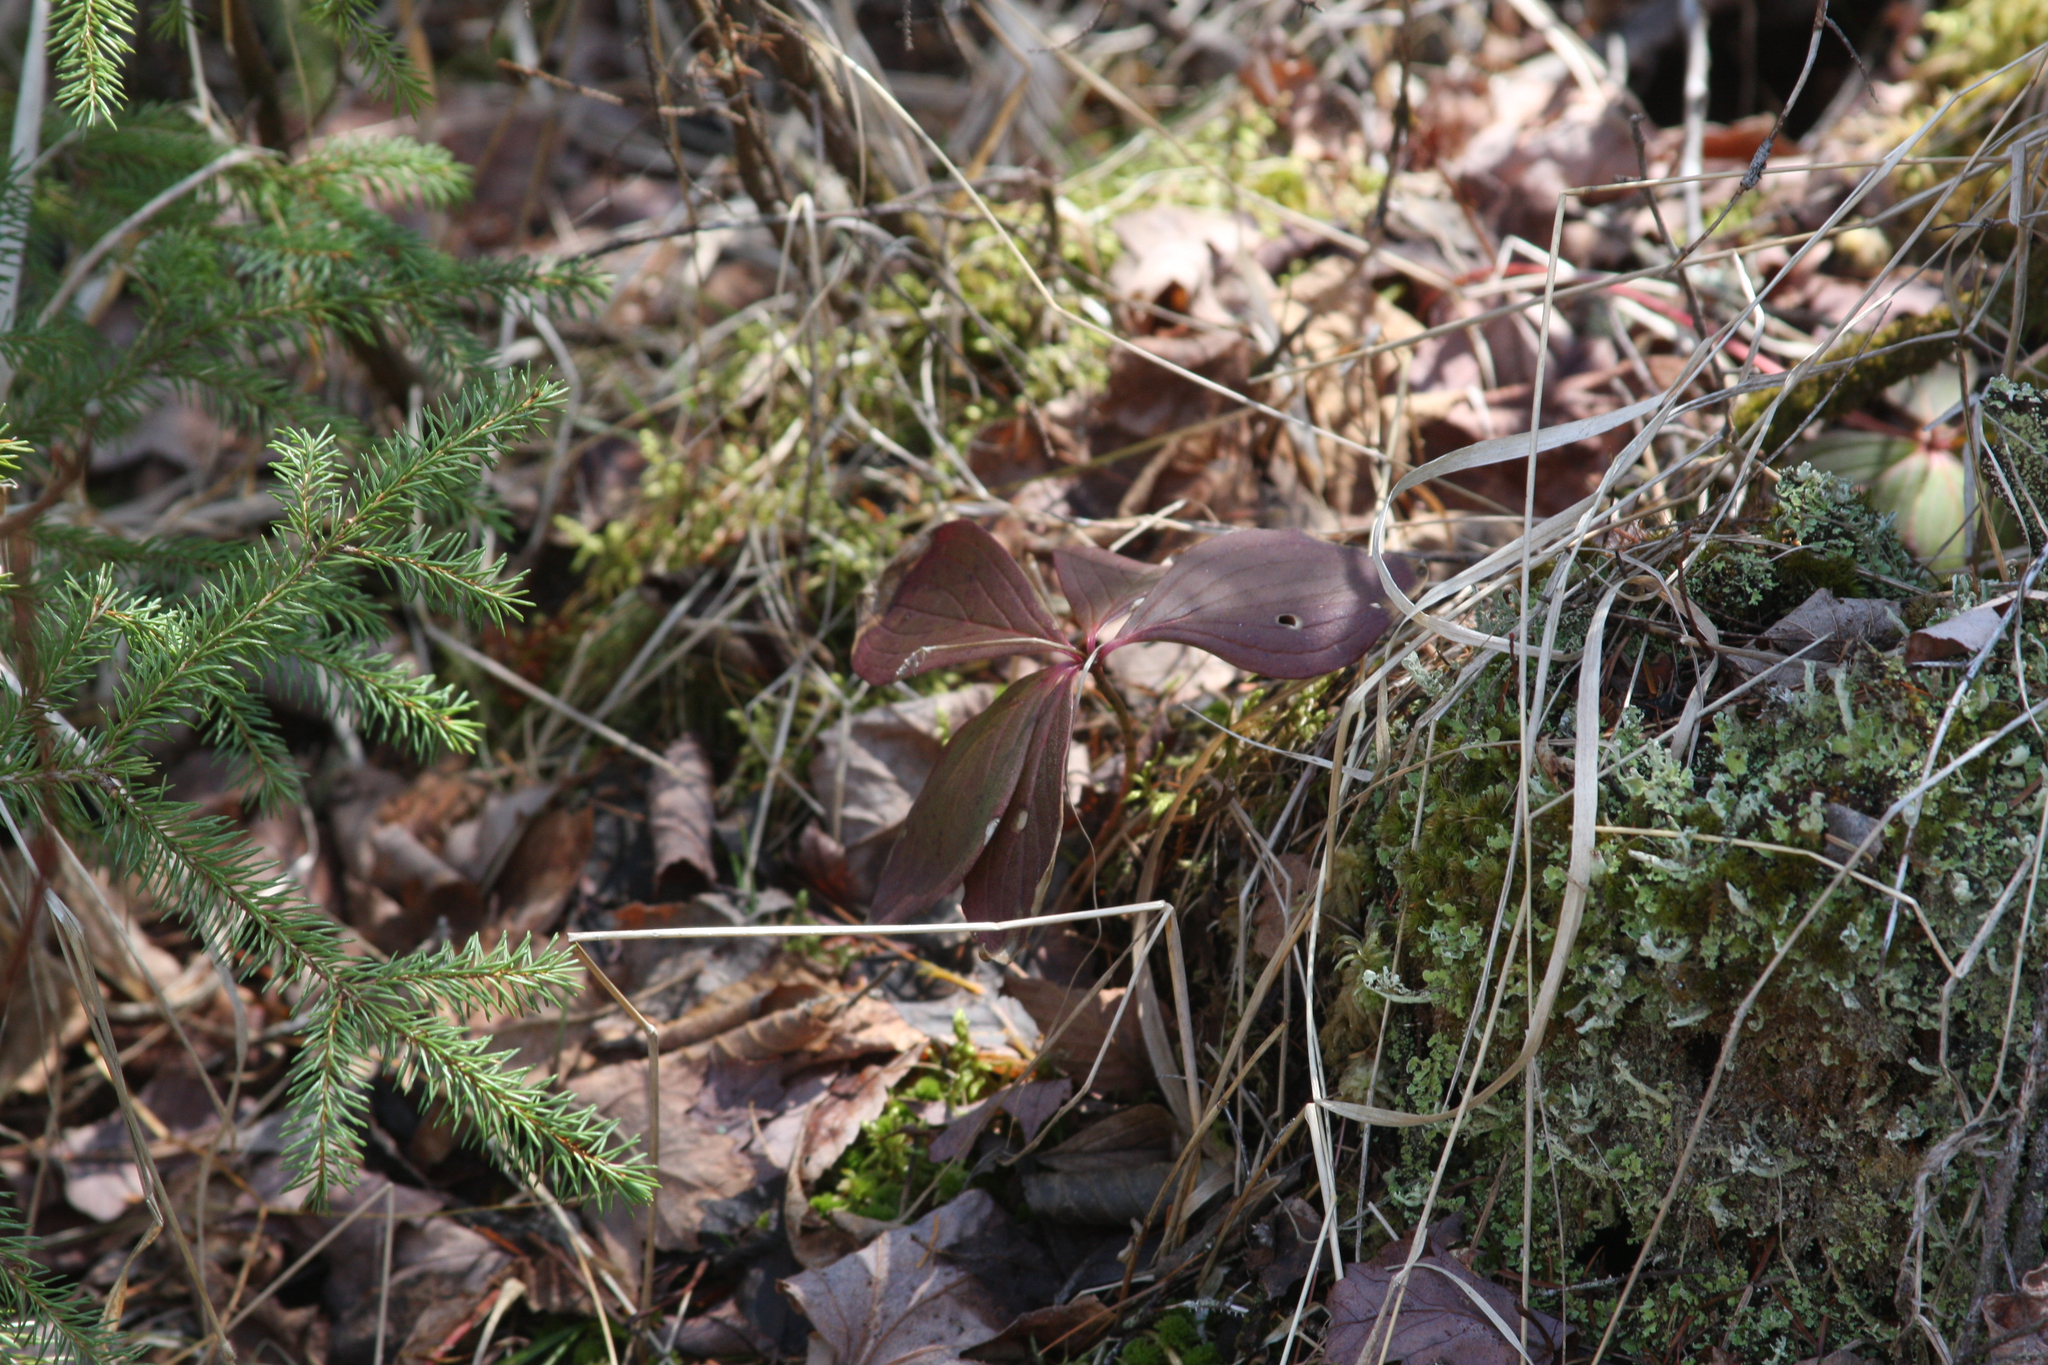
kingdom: Plantae
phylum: Tracheophyta
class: Magnoliopsida
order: Cornales
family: Cornaceae
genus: Cornus
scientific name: Cornus canadensis
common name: Creeping dogwood
